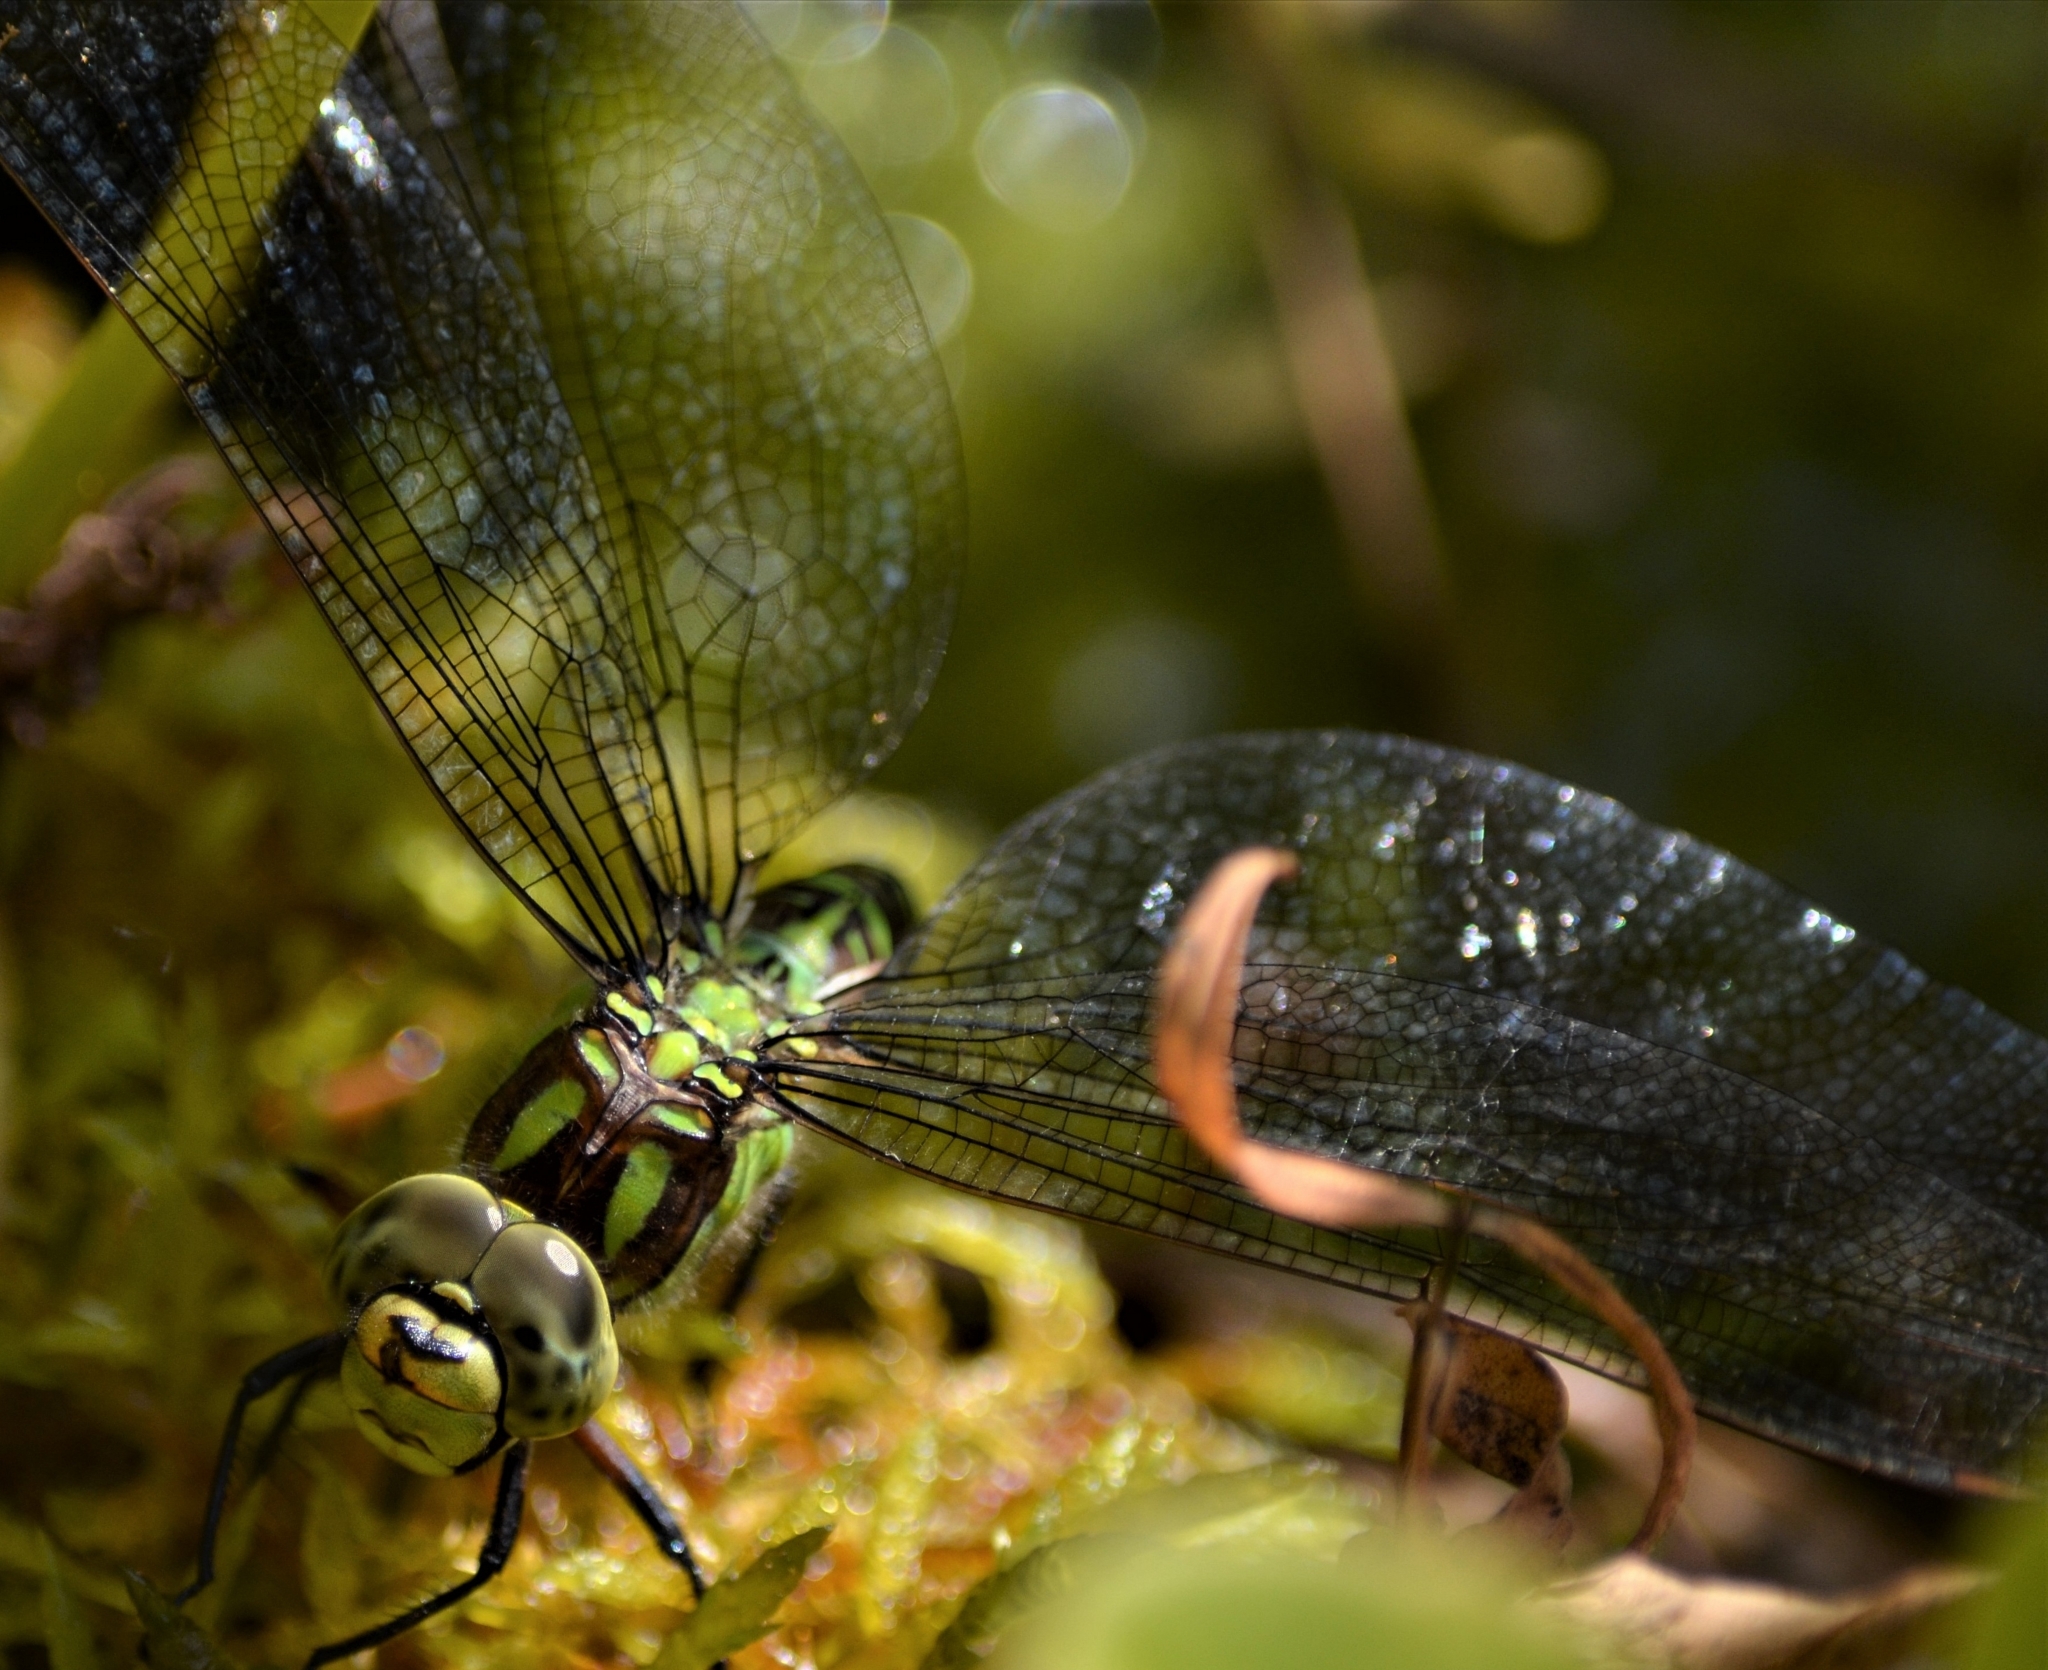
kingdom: Animalia
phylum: Arthropoda
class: Insecta
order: Odonata
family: Aeshnidae
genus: Aeshna
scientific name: Aeshna cyanea
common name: Southern hawker
